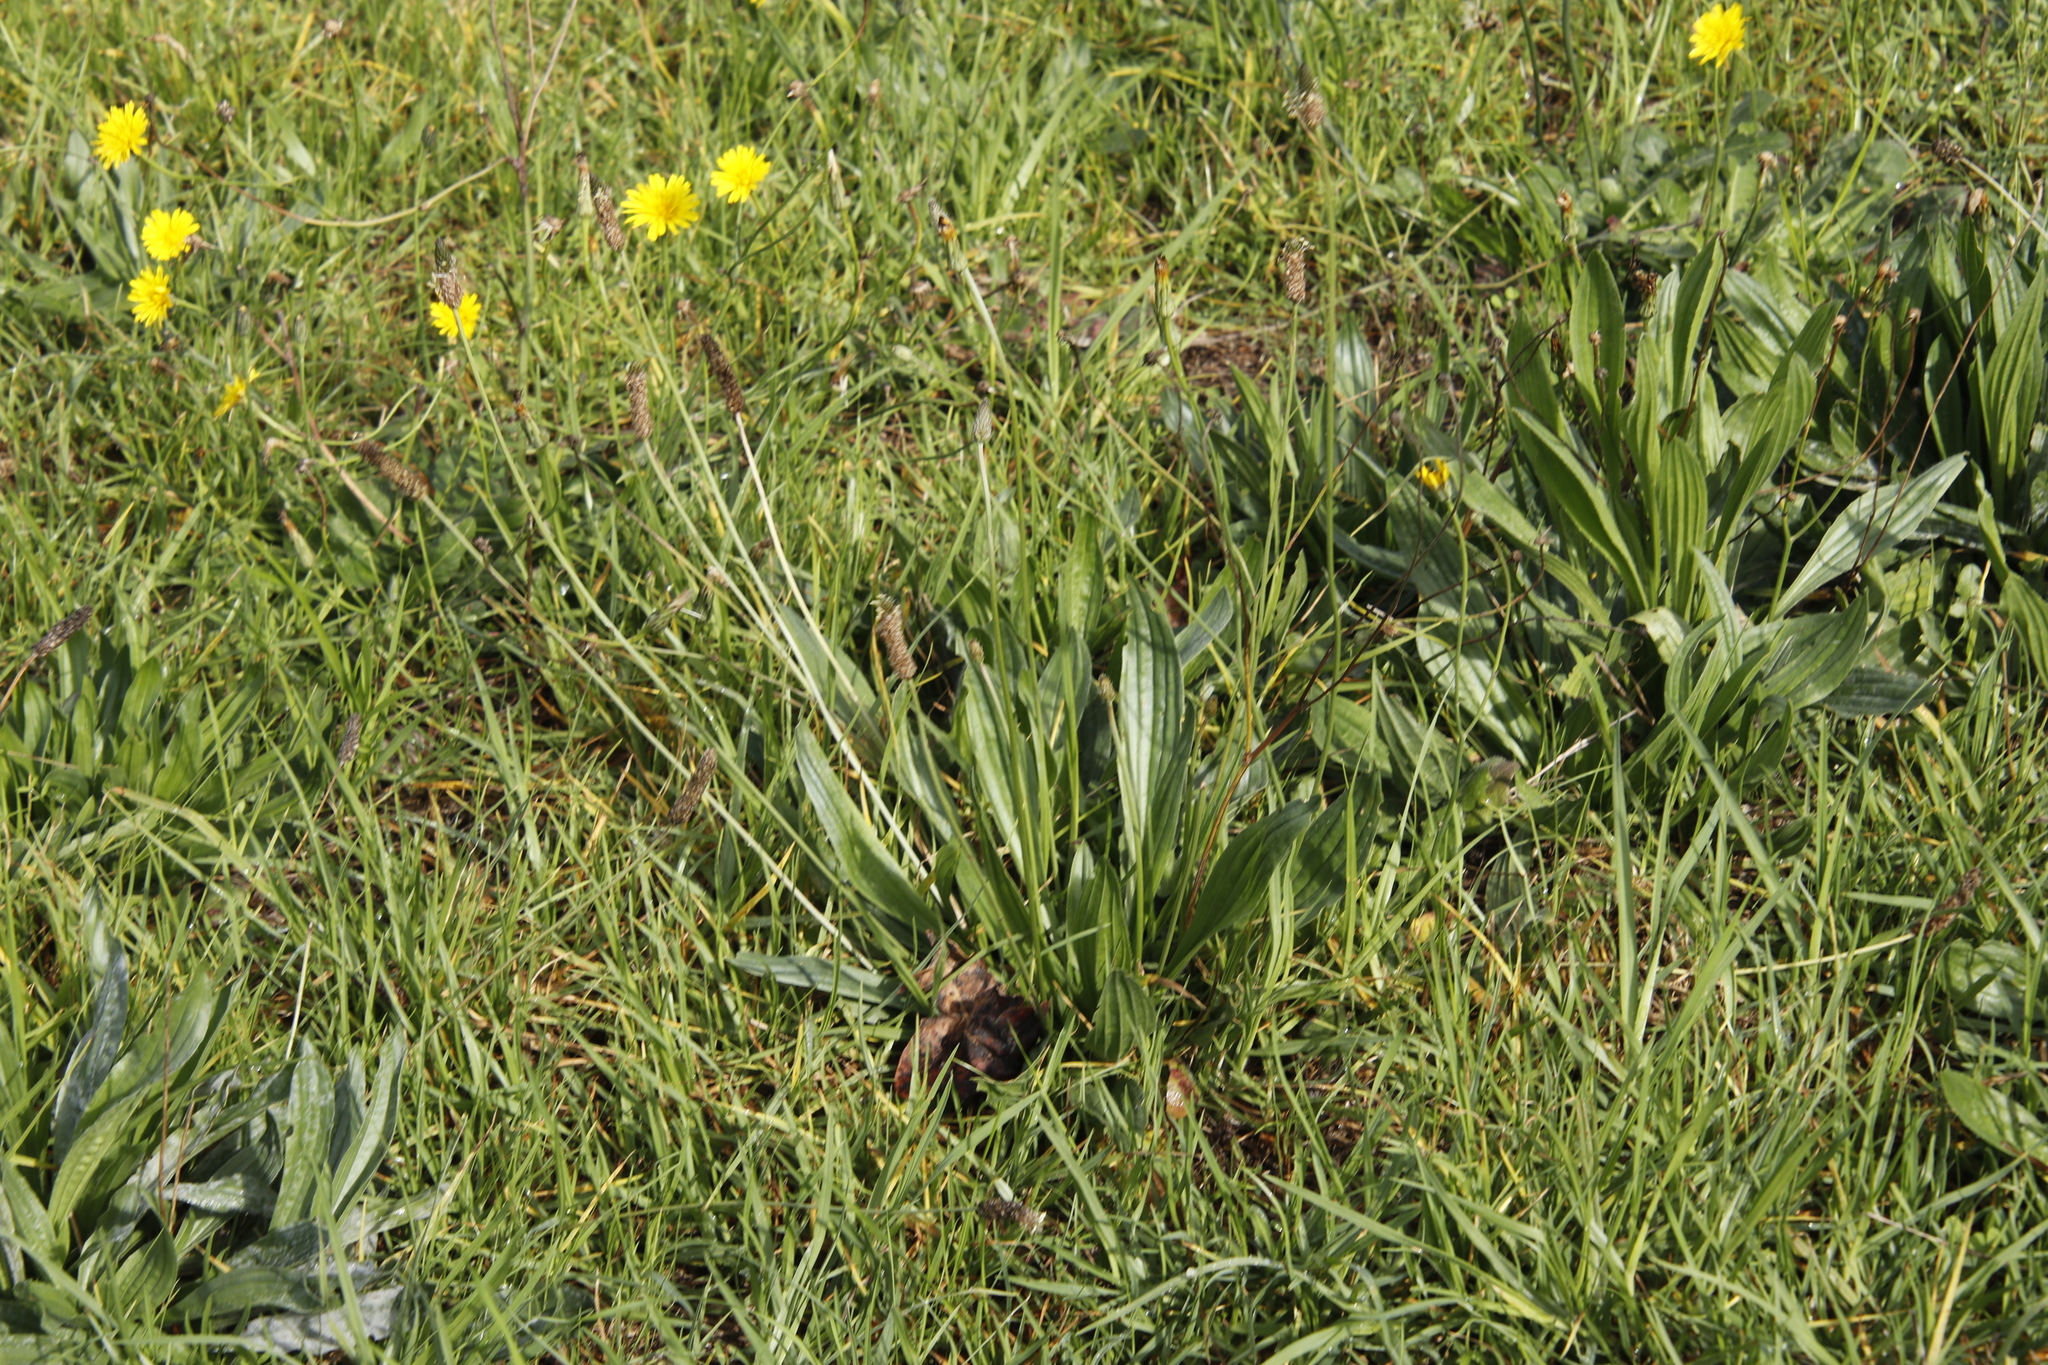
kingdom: Plantae
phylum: Tracheophyta
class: Magnoliopsida
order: Lamiales
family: Plantaginaceae
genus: Plantago
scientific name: Plantago lanceolata
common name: Ribwort plantain
